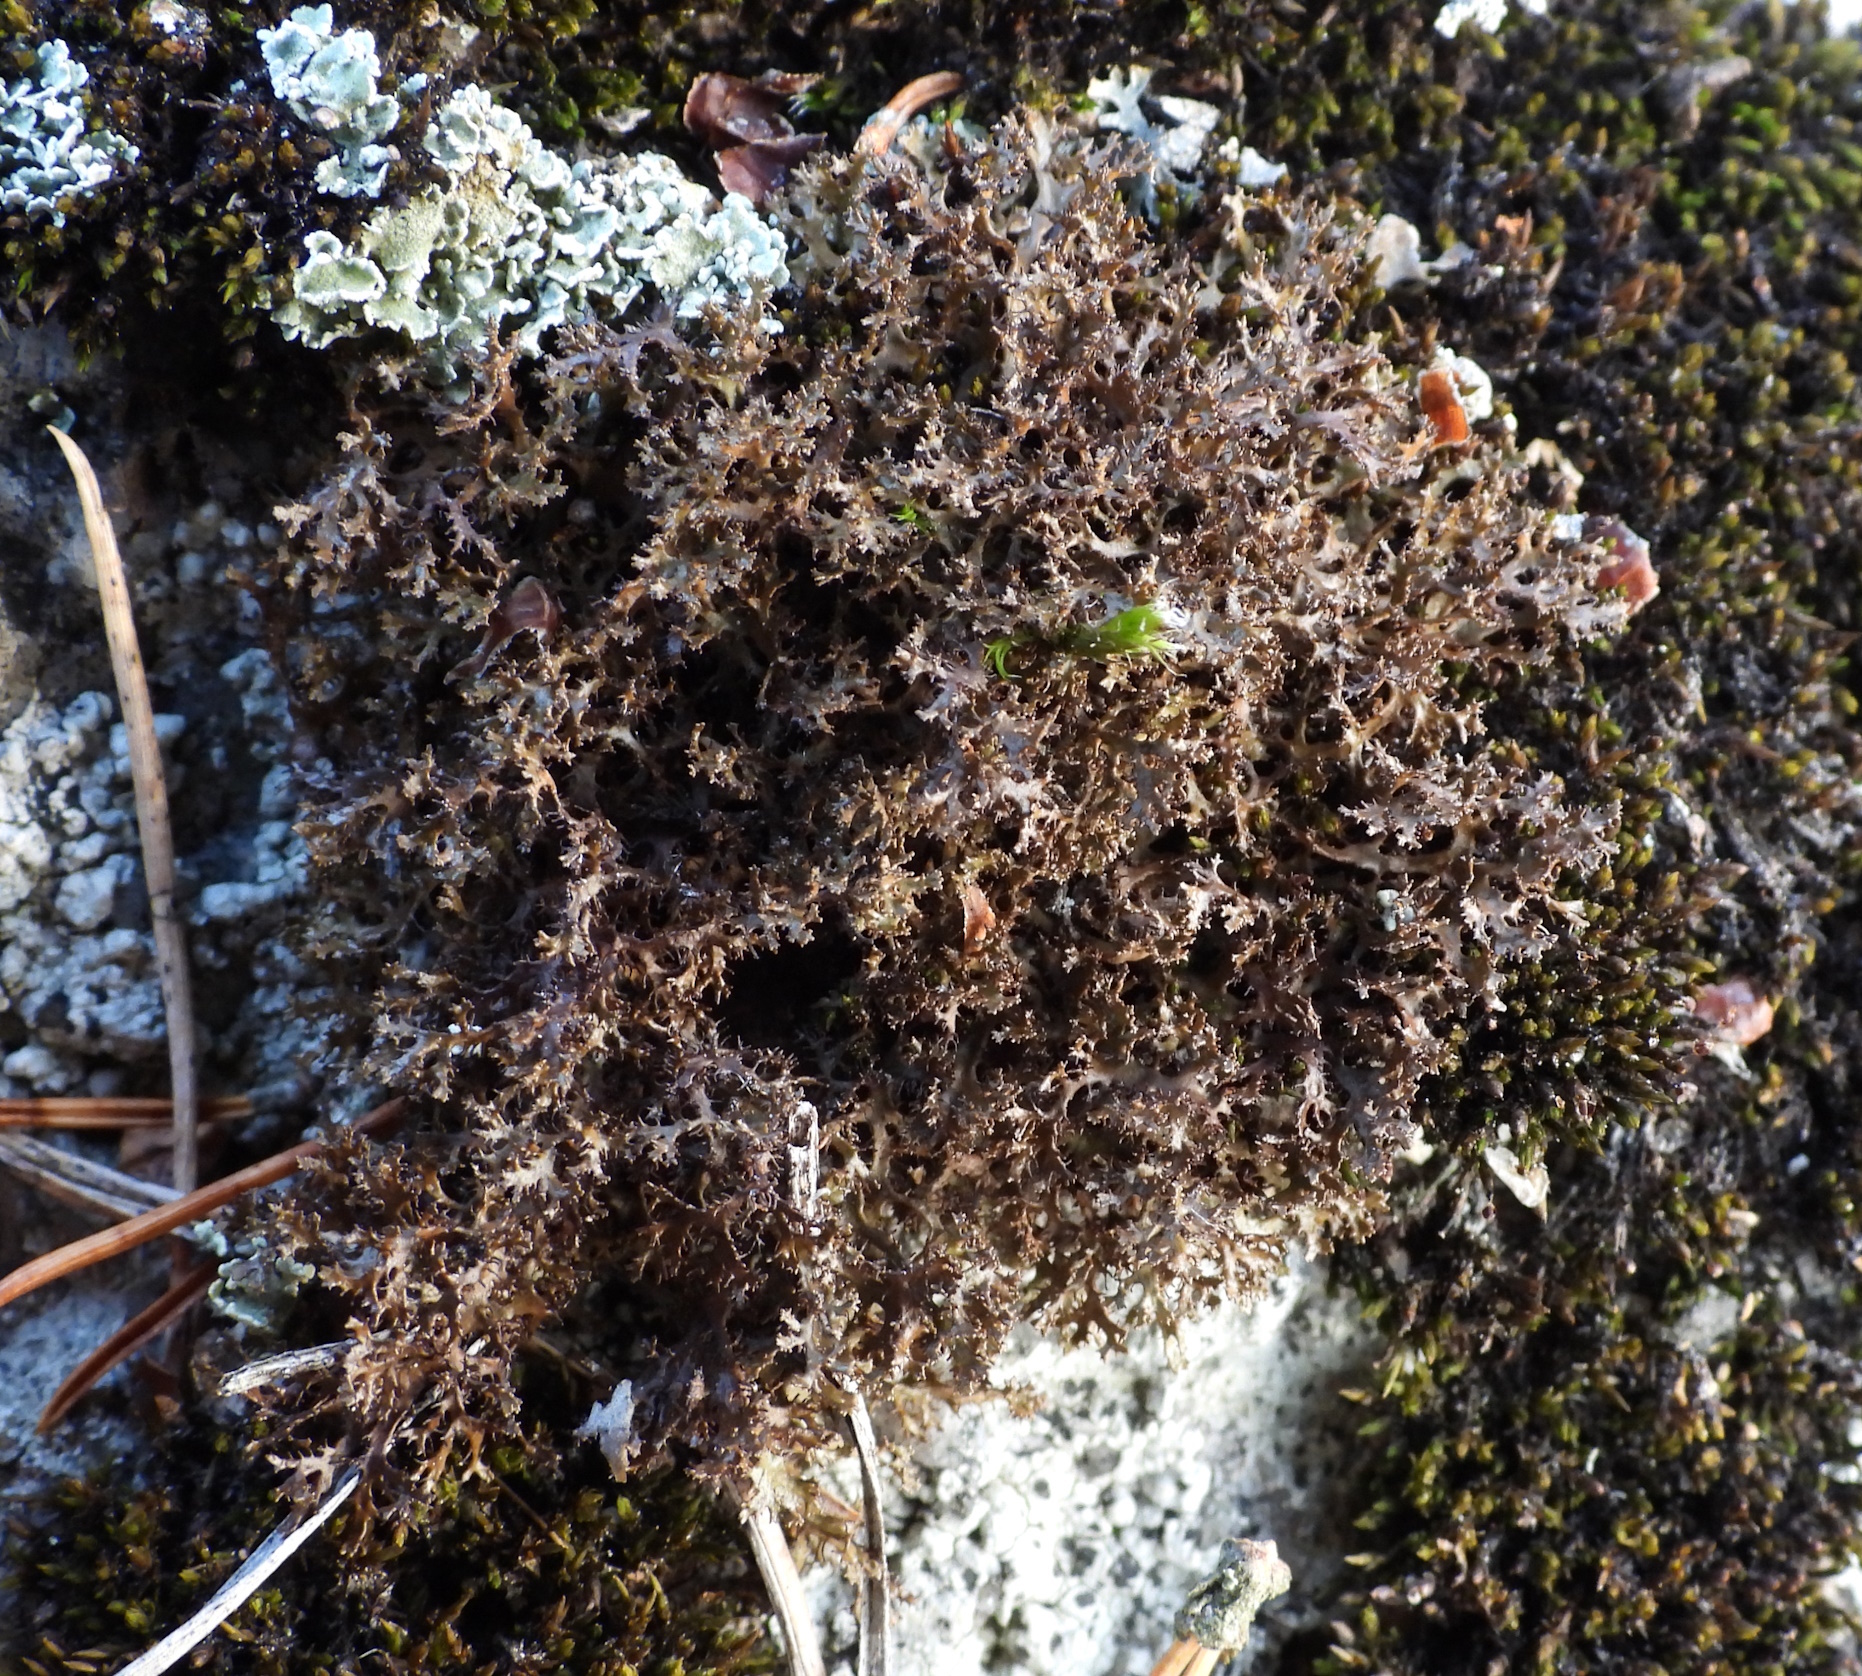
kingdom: Fungi
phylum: Ascomycota
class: Lecanoromycetes
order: Lecanorales
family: Parmeliaceae
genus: Cetraria
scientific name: Cetraria odontella
